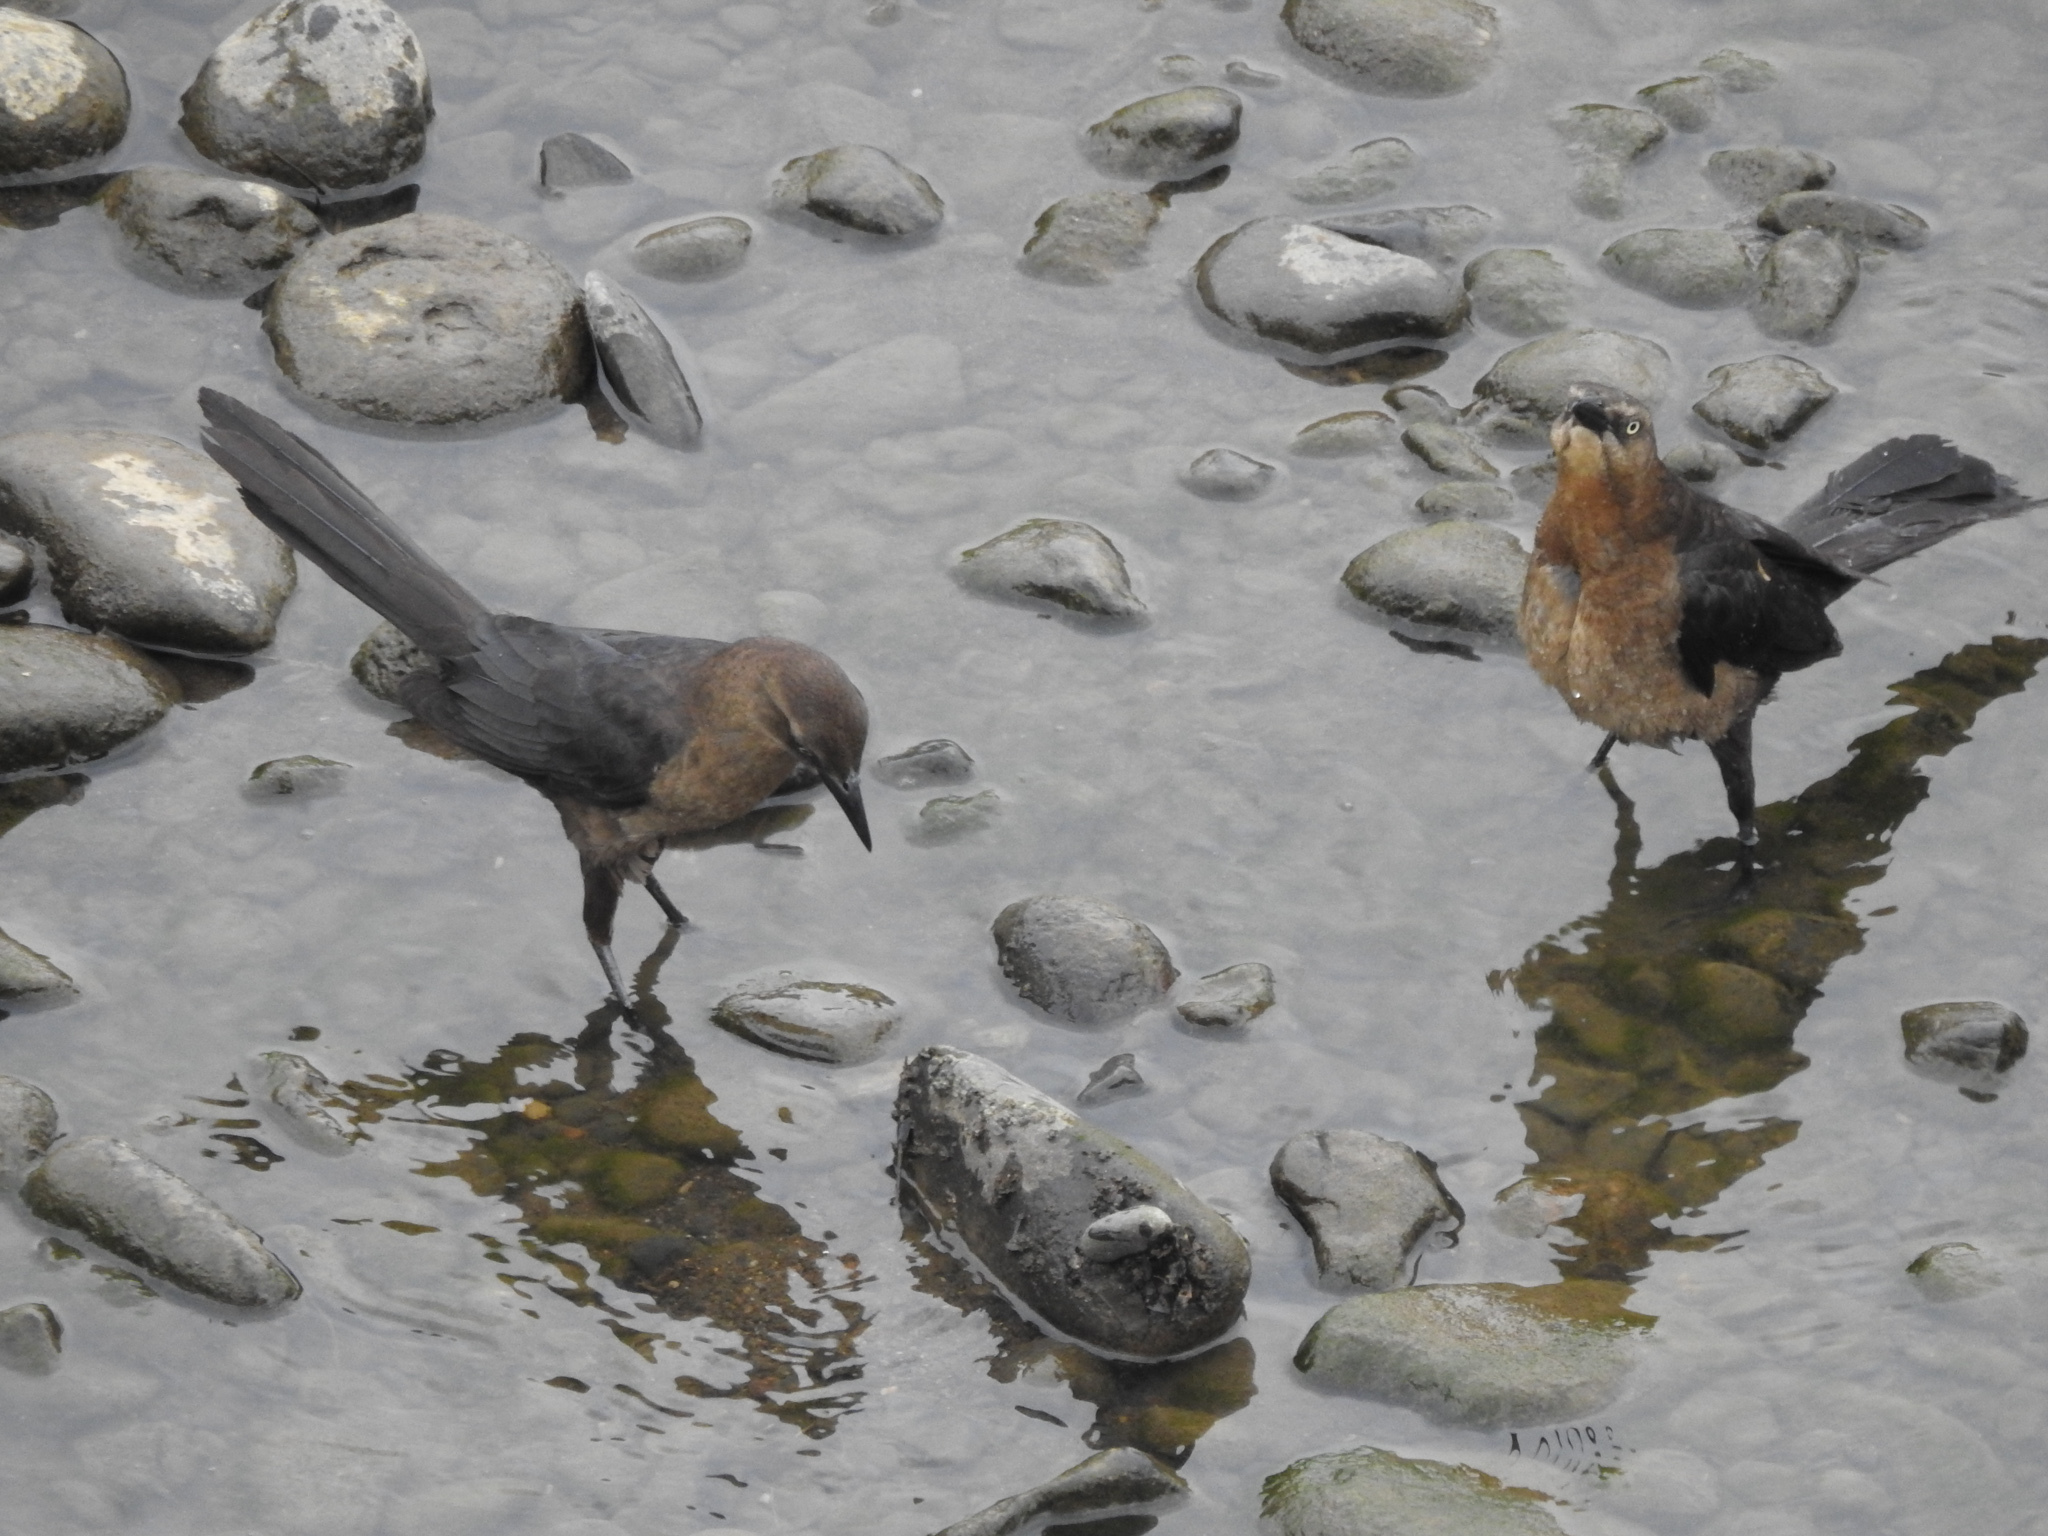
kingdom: Animalia
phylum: Chordata
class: Aves
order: Passeriformes
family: Icteridae
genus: Quiscalus
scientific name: Quiscalus mexicanus
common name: Great-tailed grackle
